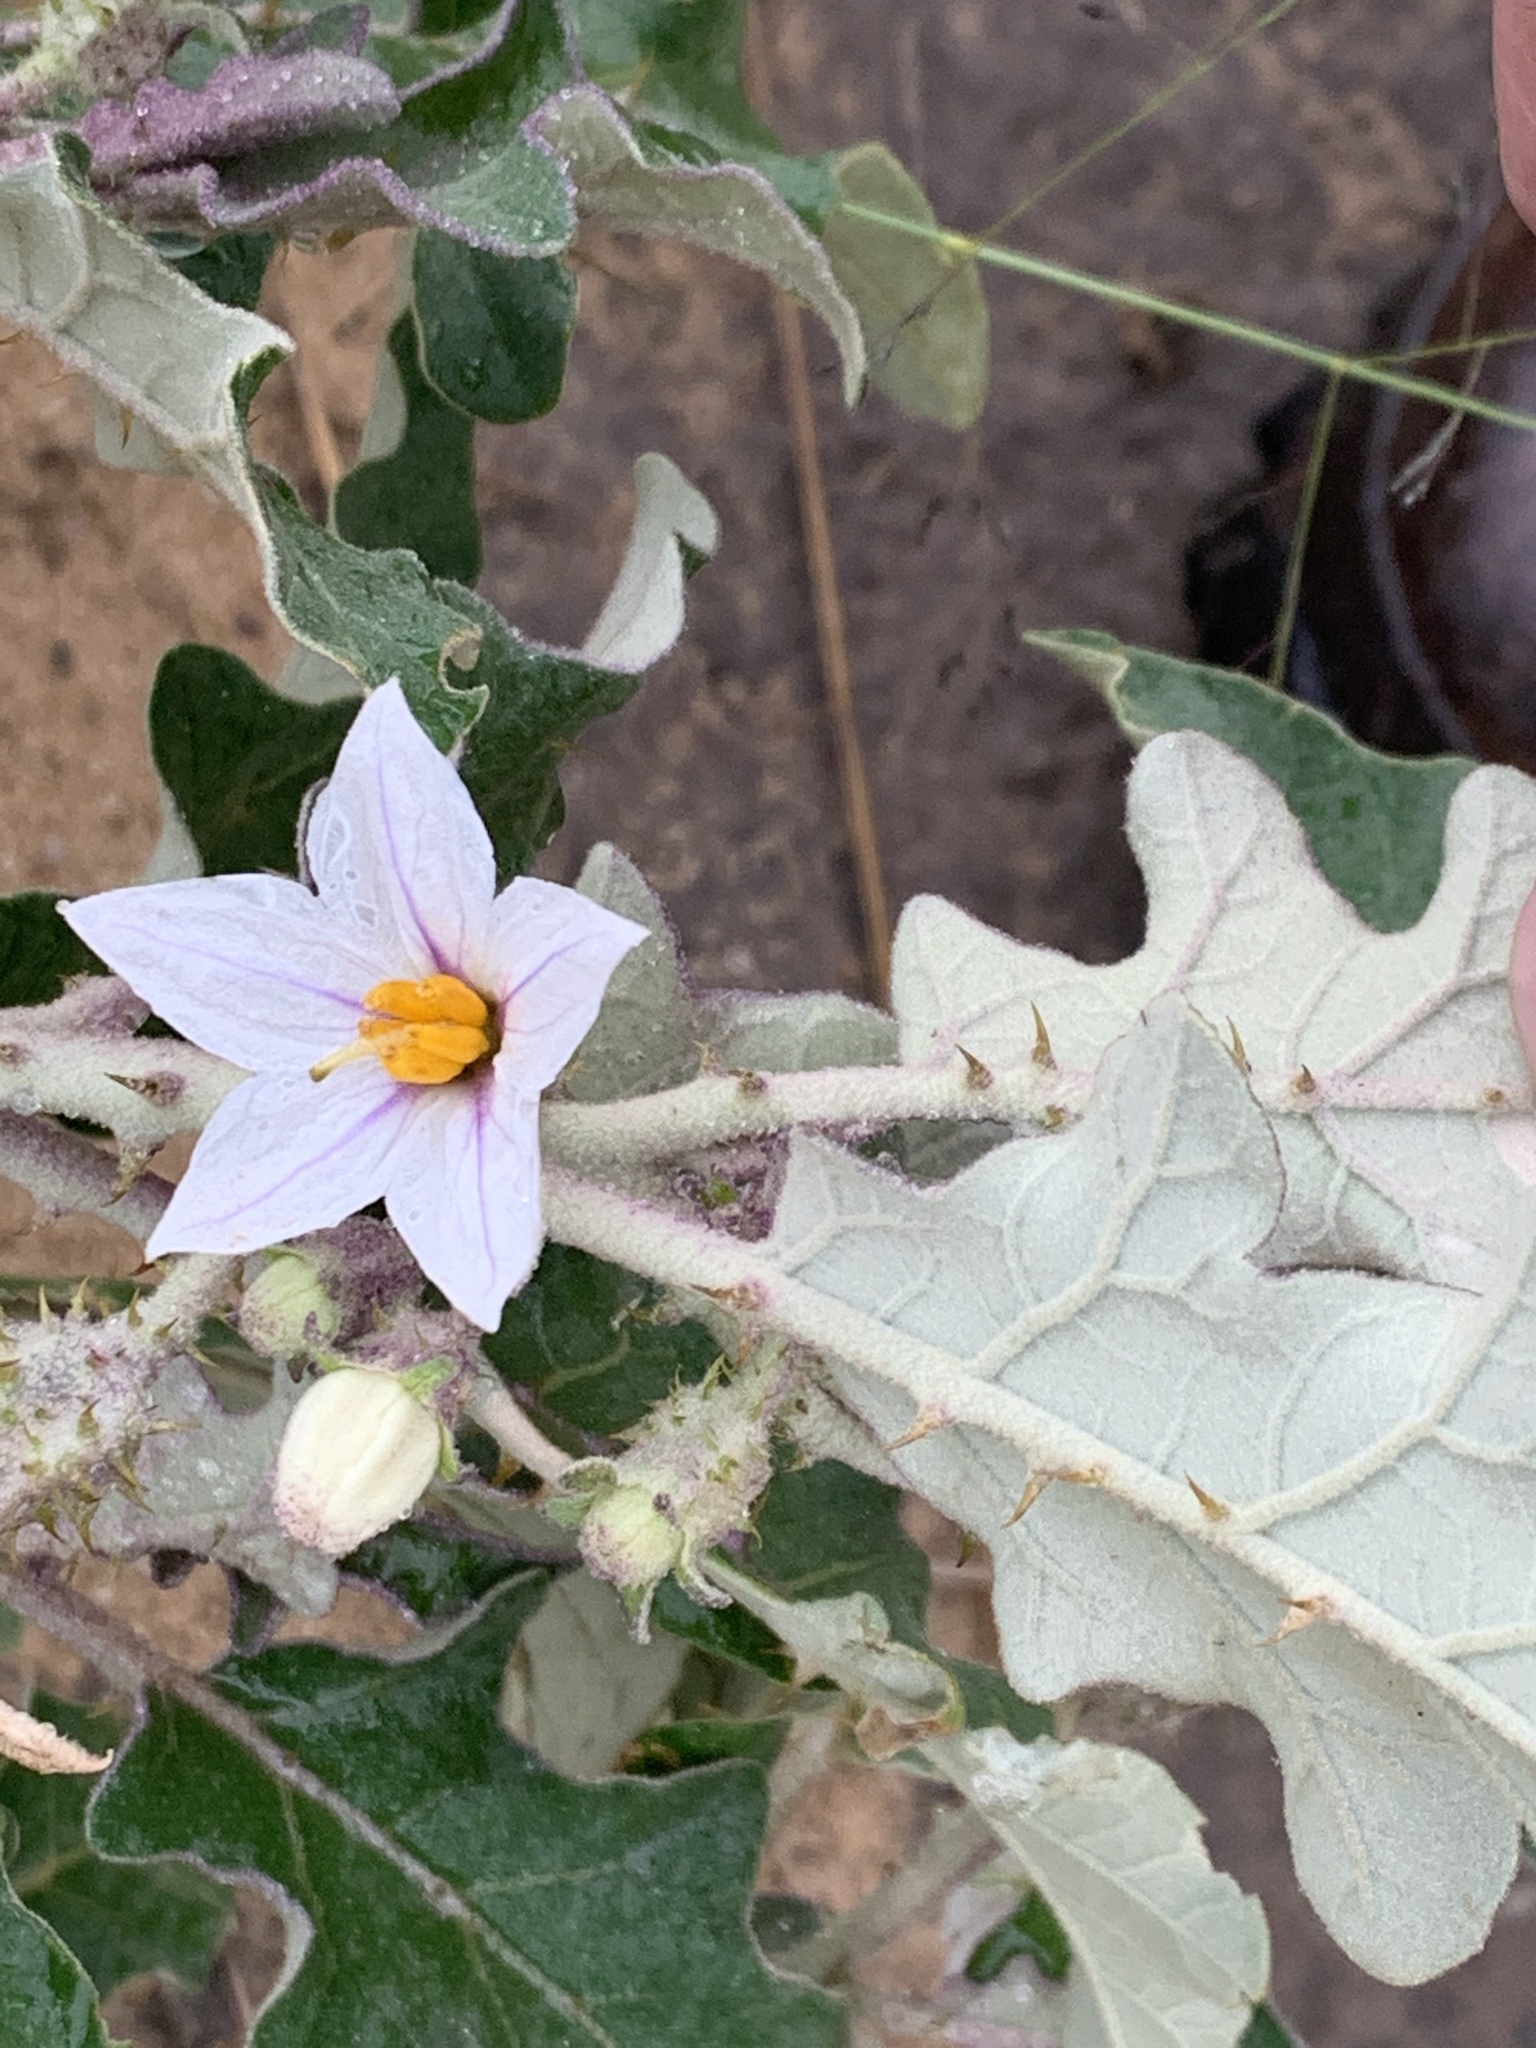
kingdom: Plantae
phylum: Tracheophyta
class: Magnoliopsida
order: Solanales
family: Solanaceae
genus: Solanum
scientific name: Solanum lichtensteinii
